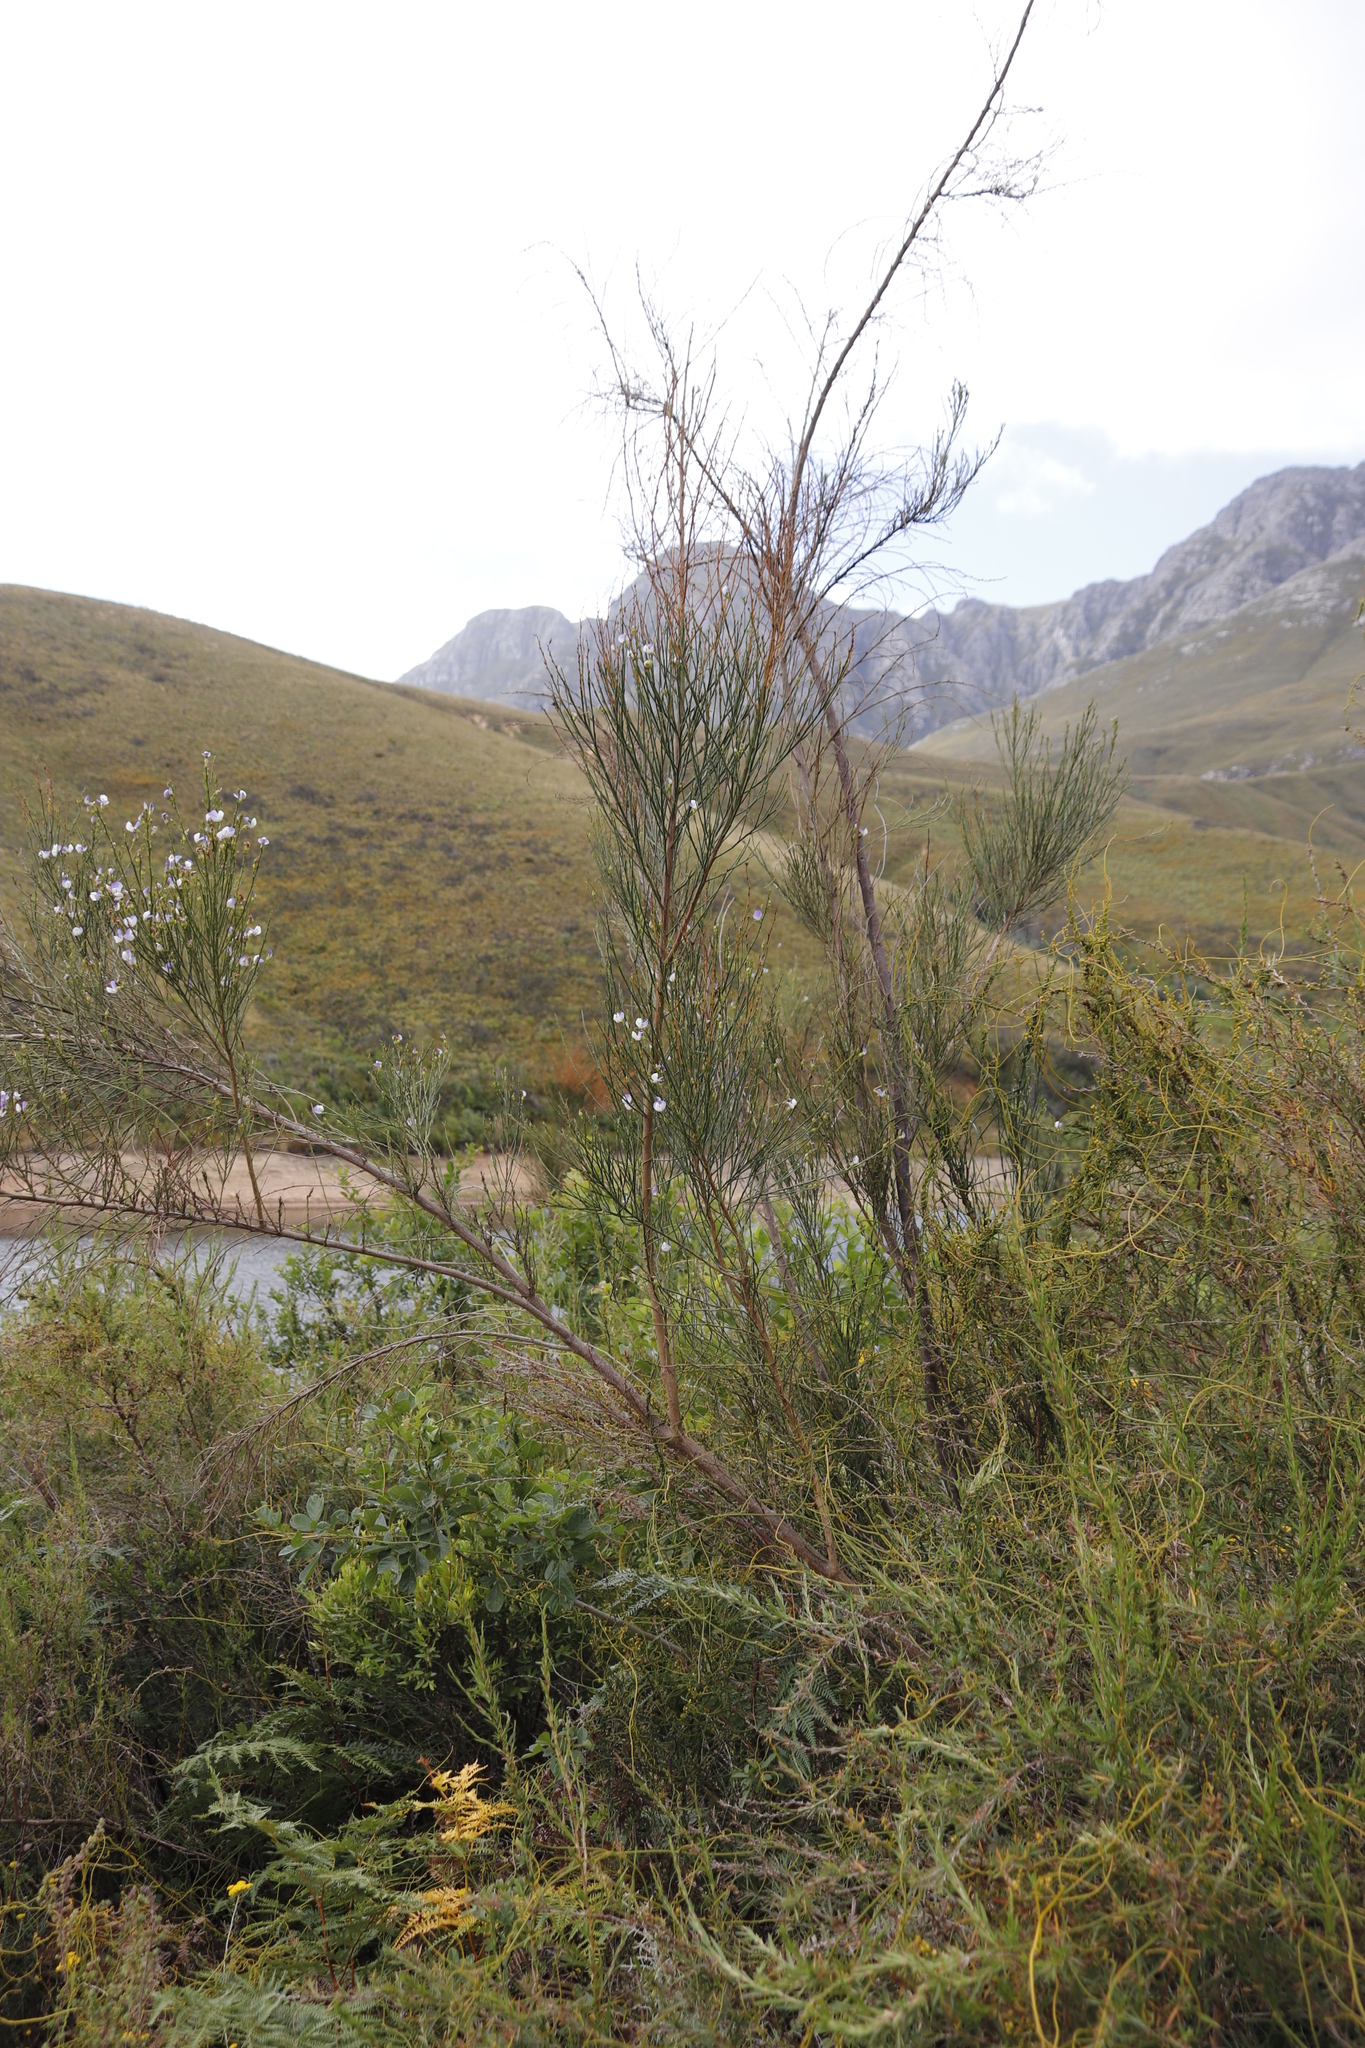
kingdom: Plantae
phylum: Tracheophyta
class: Magnoliopsida
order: Fabales
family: Fabaceae
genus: Psoralea
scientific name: Psoralea usitata
